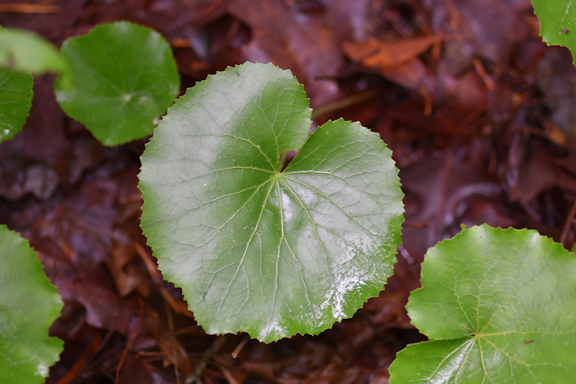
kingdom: Plantae
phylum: Tracheophyta
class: Magnoliopsida
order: Ericales
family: Diapensiaceae
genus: Galax
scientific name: Galax urceolata
